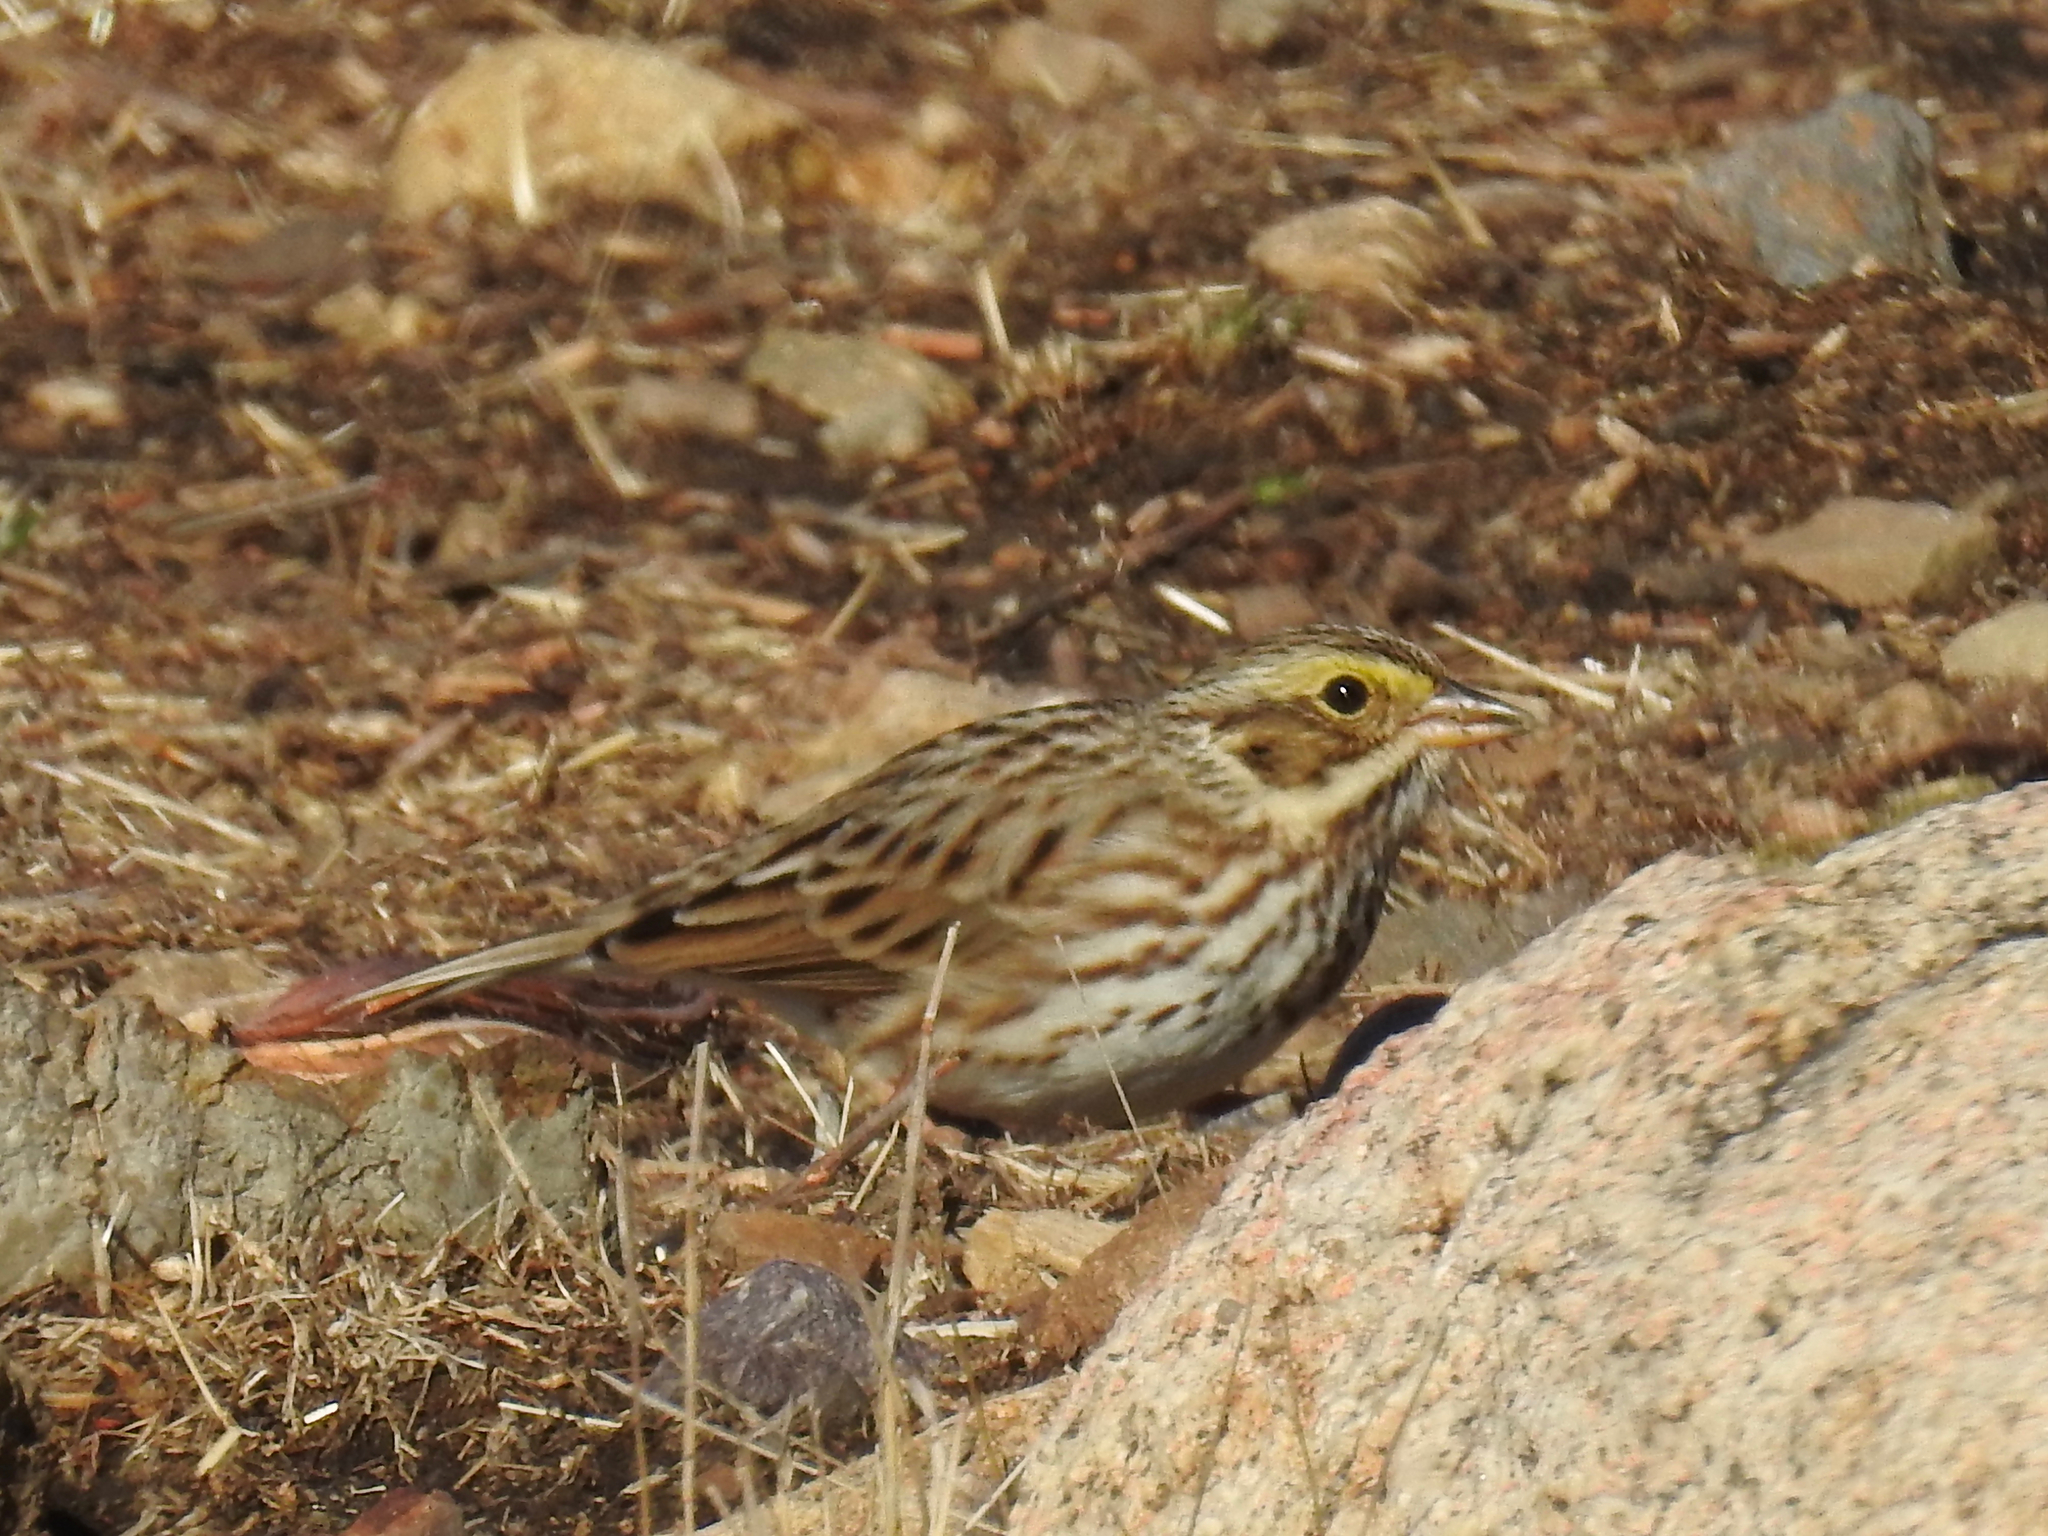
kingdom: Animalia
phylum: Chordata
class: Aves
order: Passeriformes
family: Passerellidae
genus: Passerculus
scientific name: Passerculus sandwichensis
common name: Savannah sparrow
